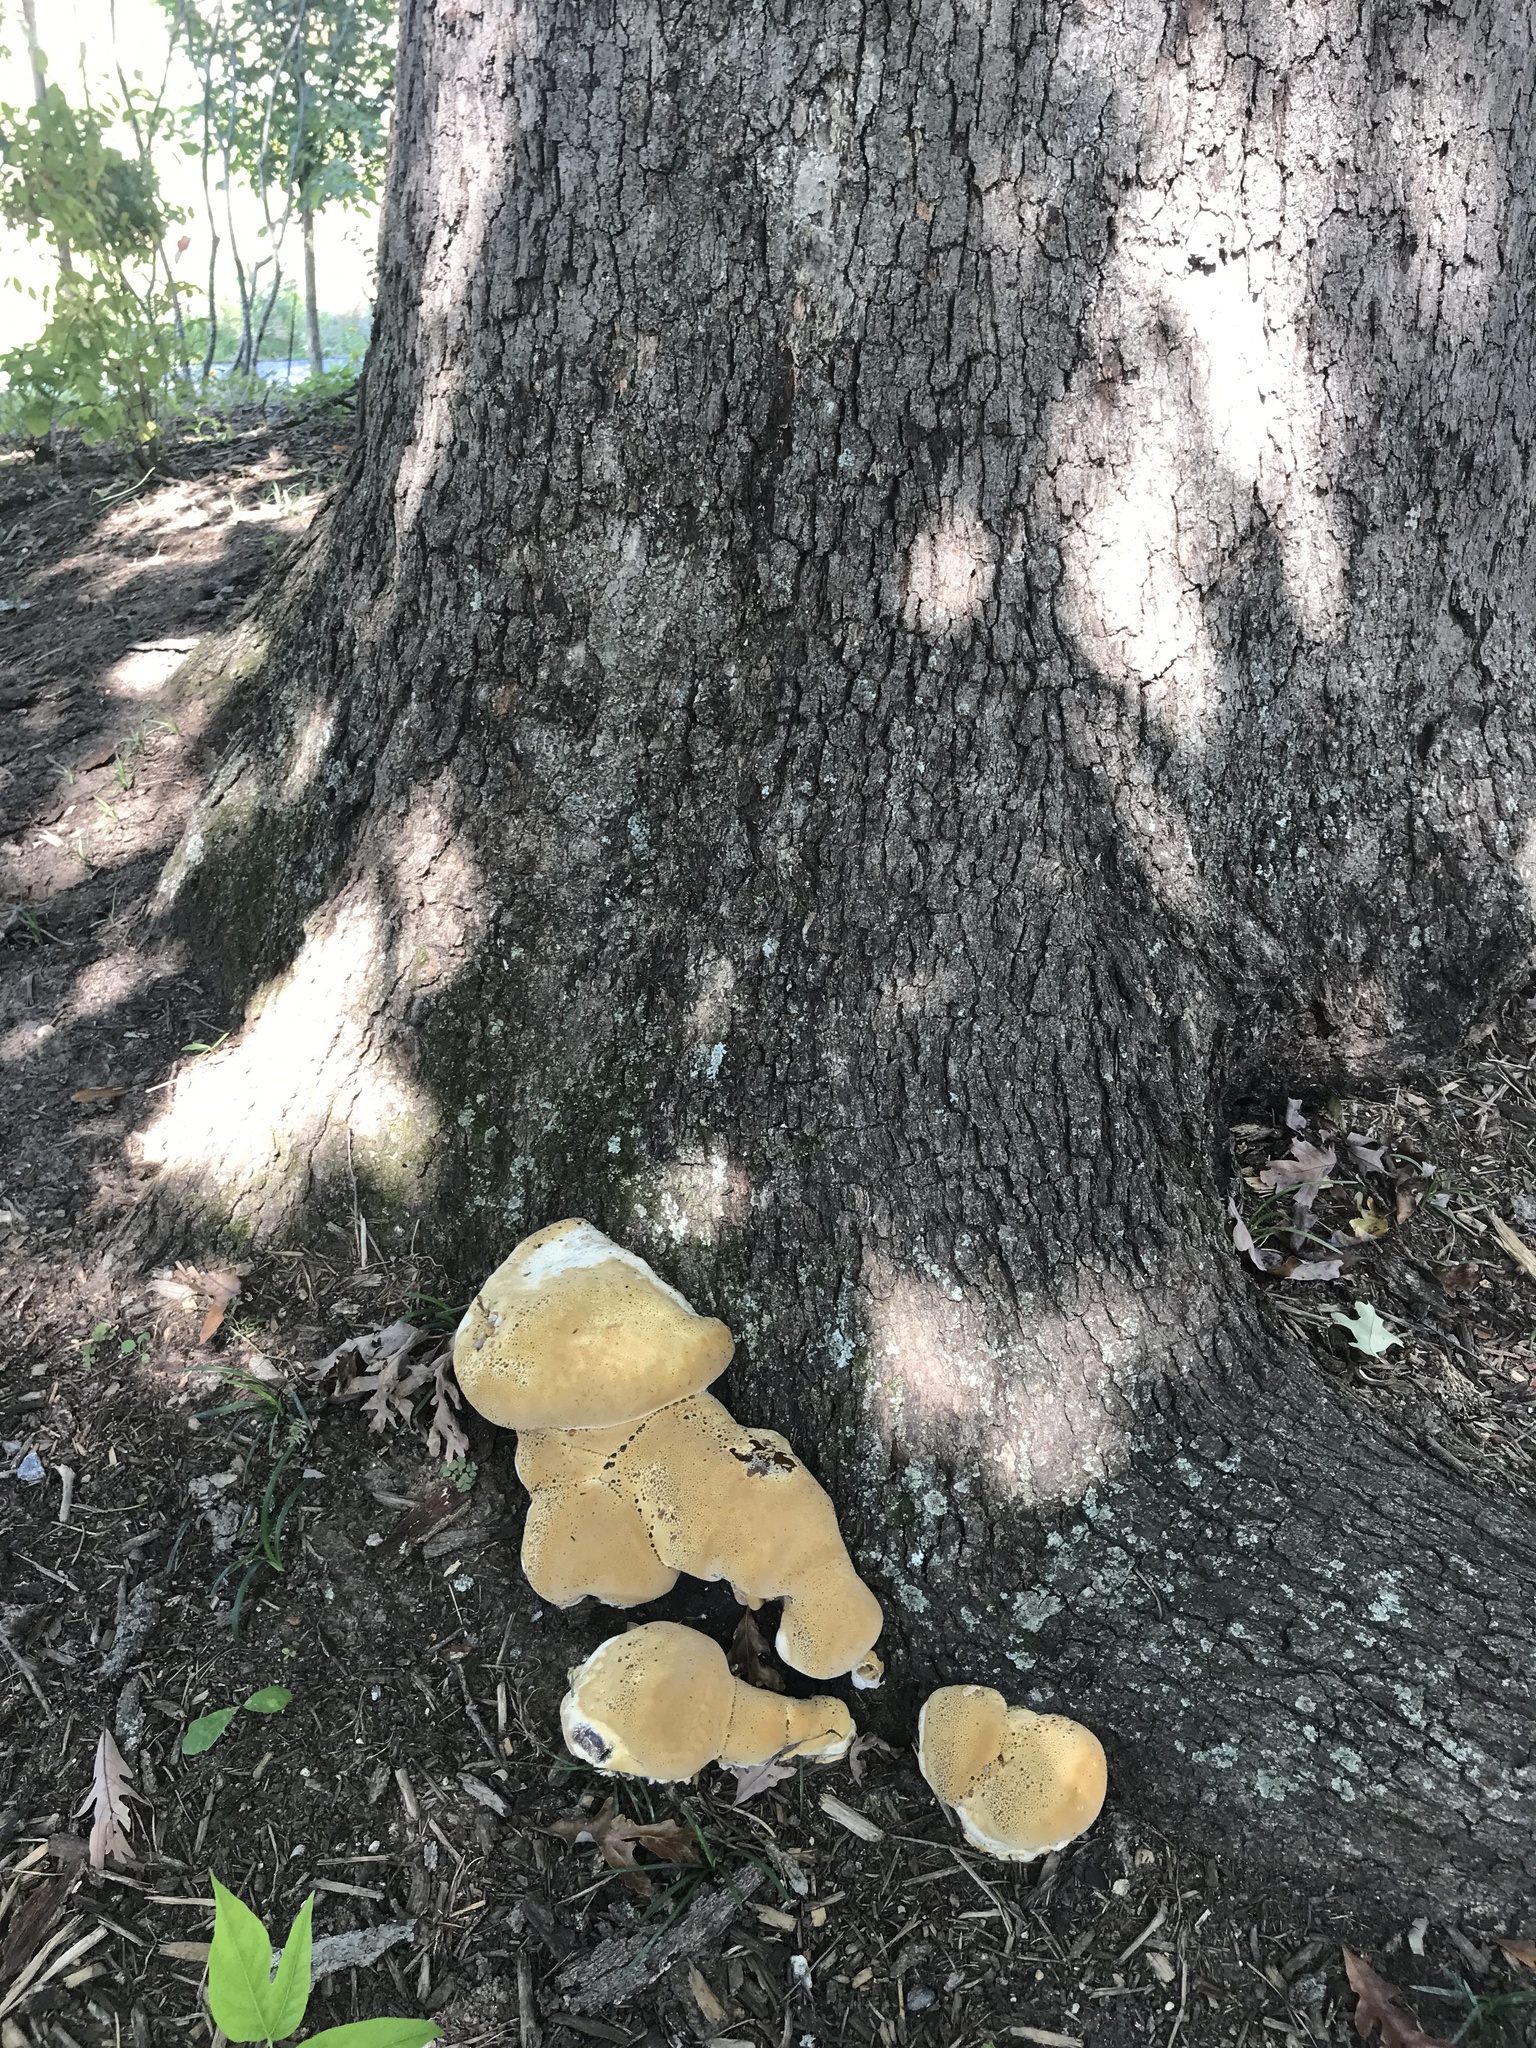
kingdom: Fungi
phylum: Basidiomycota
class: Agaricomycetes
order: Hymenochaetales
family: Hymenochaetaceae
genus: Pseudoinonotus
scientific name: Pseudoinonotus dryadeus
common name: Oak bracket
